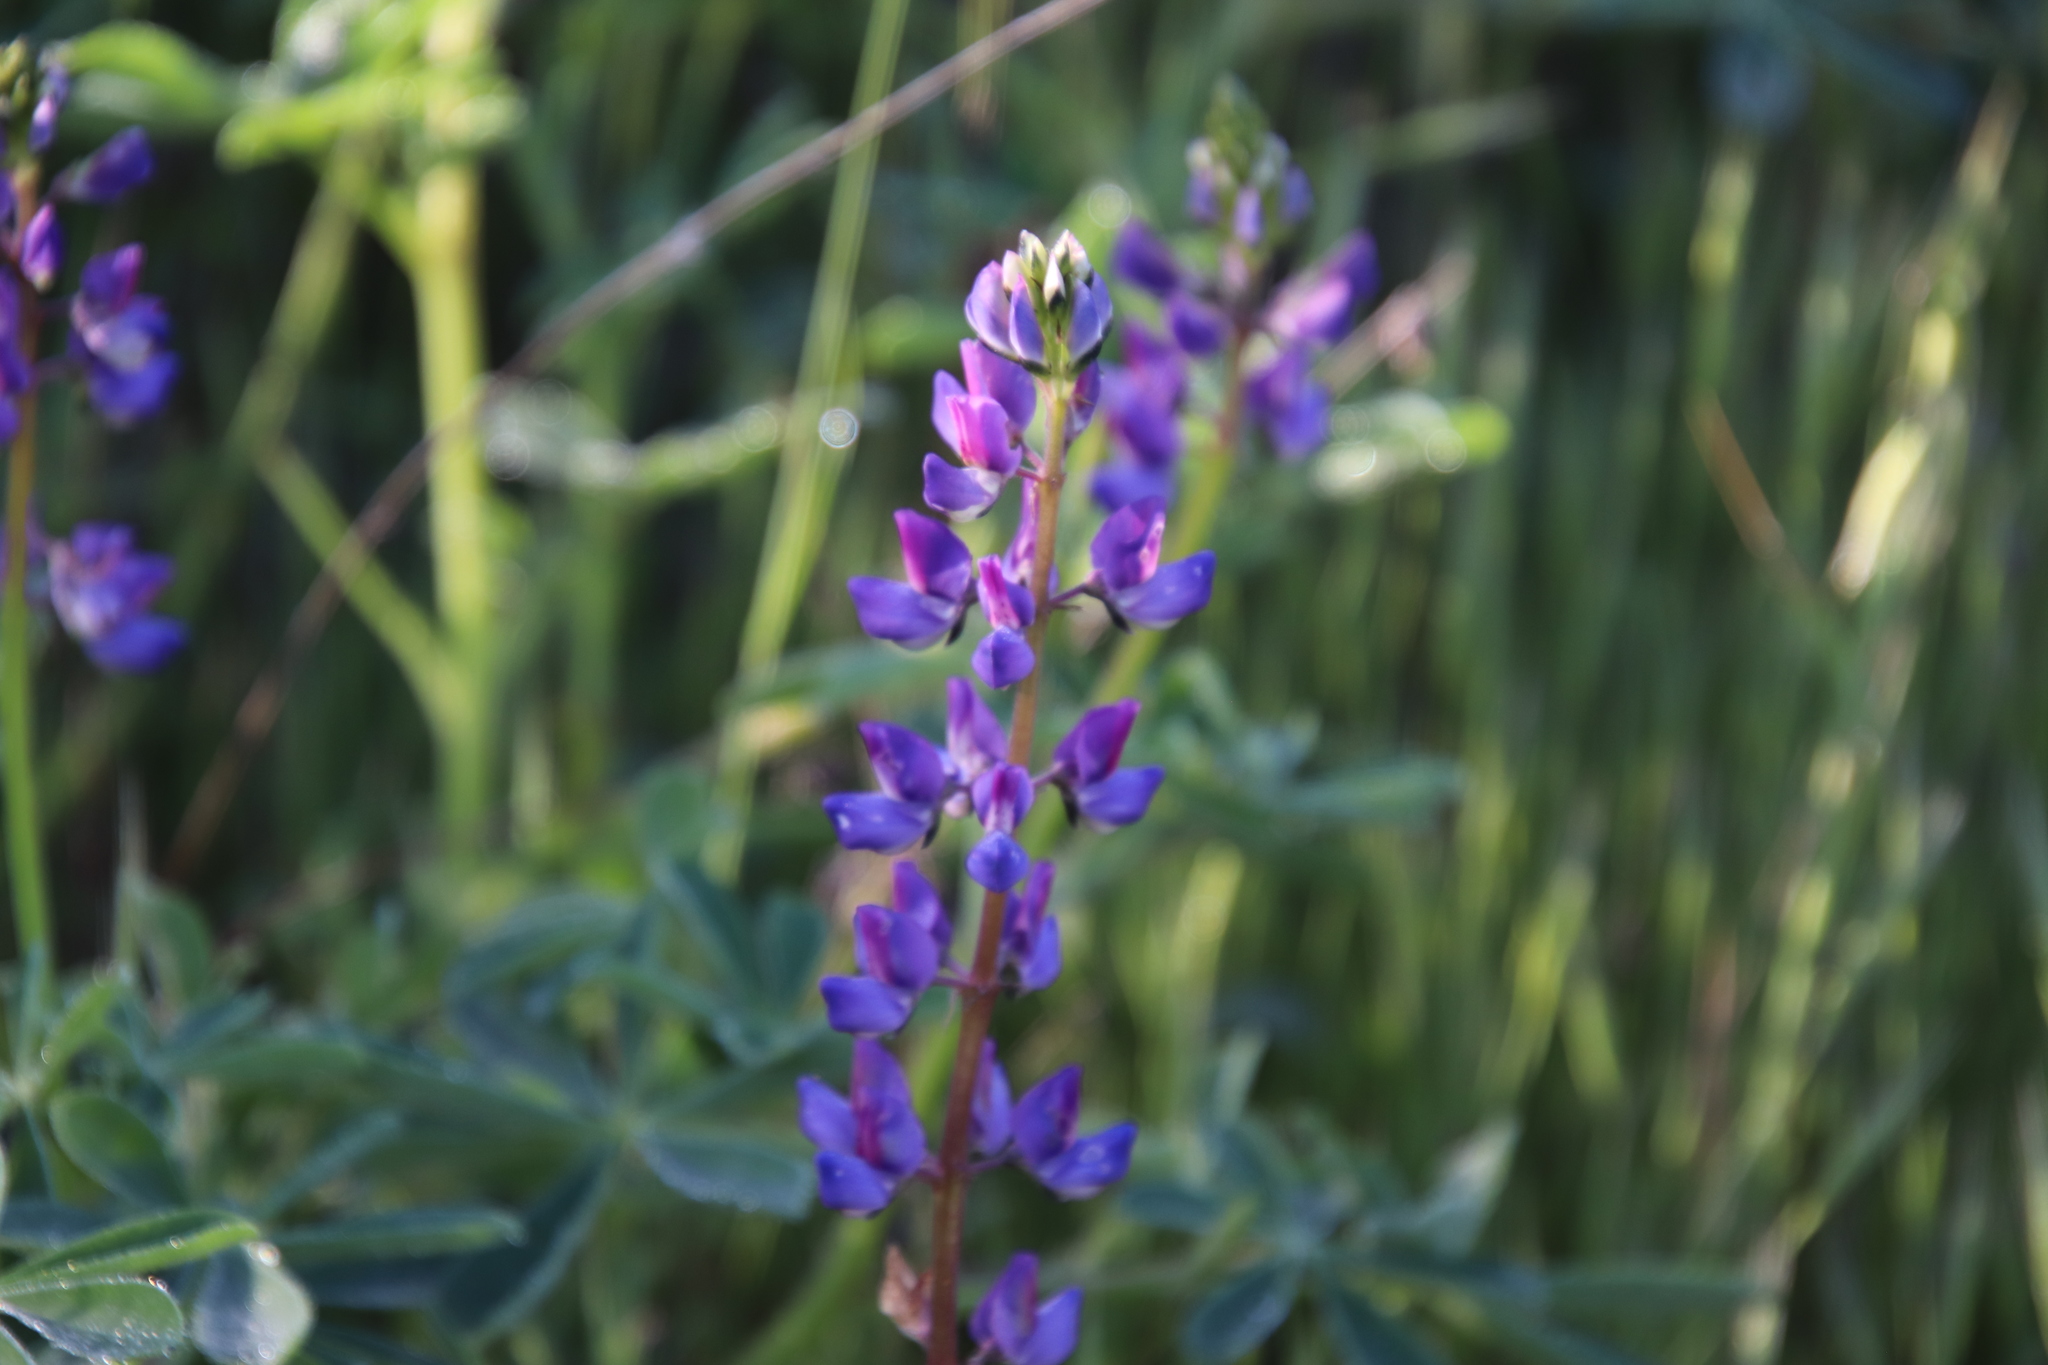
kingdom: Plantae
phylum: Tracheophyta
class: Magnoliopsida
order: Fabales
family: Fabaceae
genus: Lupinus
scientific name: Lupinus succulentus
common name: Arroyo lupine
